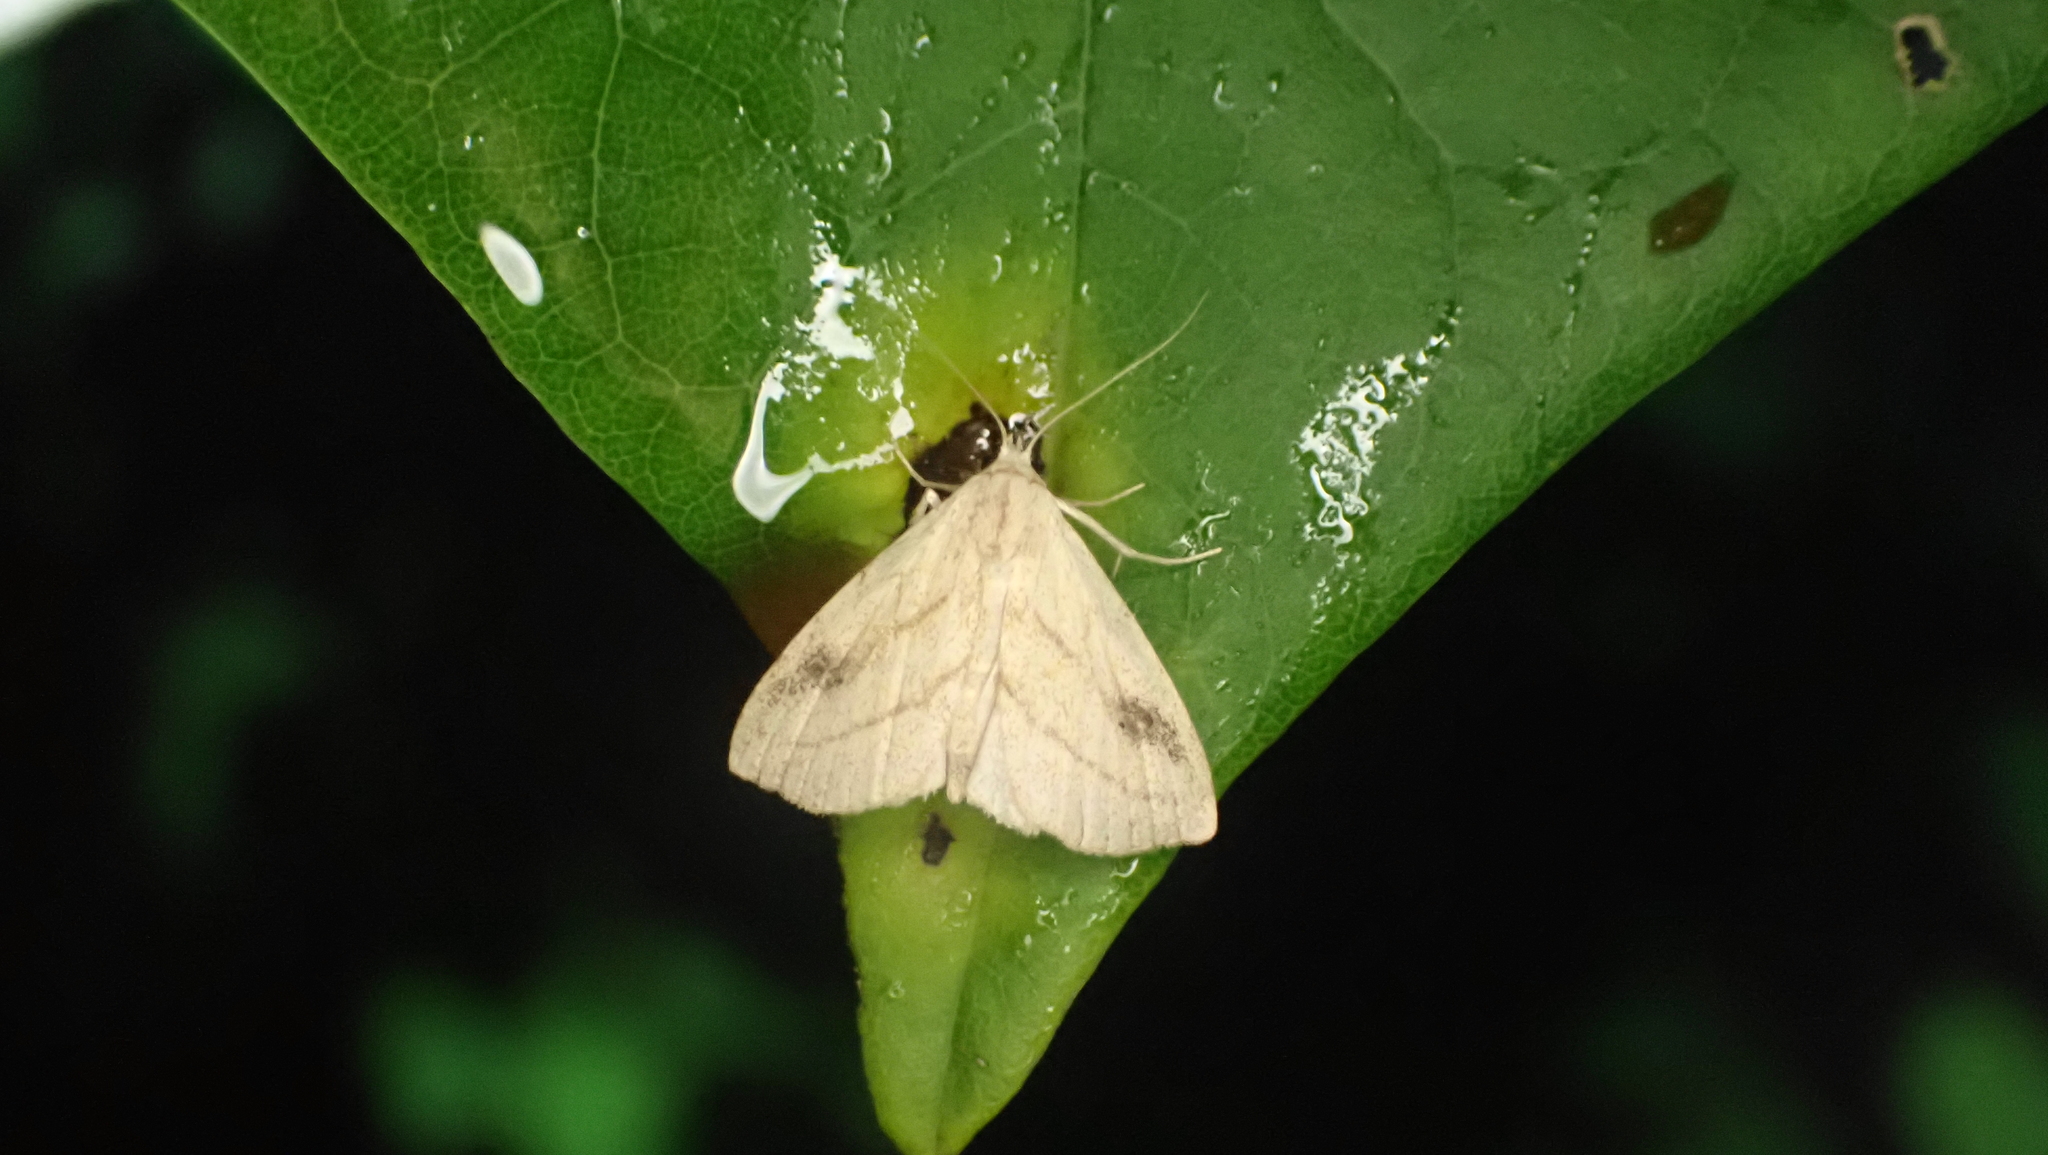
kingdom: Animalia
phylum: Arthropoda
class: Insecta
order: Lepidoptera
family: Erebidae
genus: Rivula
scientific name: Rivula propinqualis
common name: Spotted grass moth
